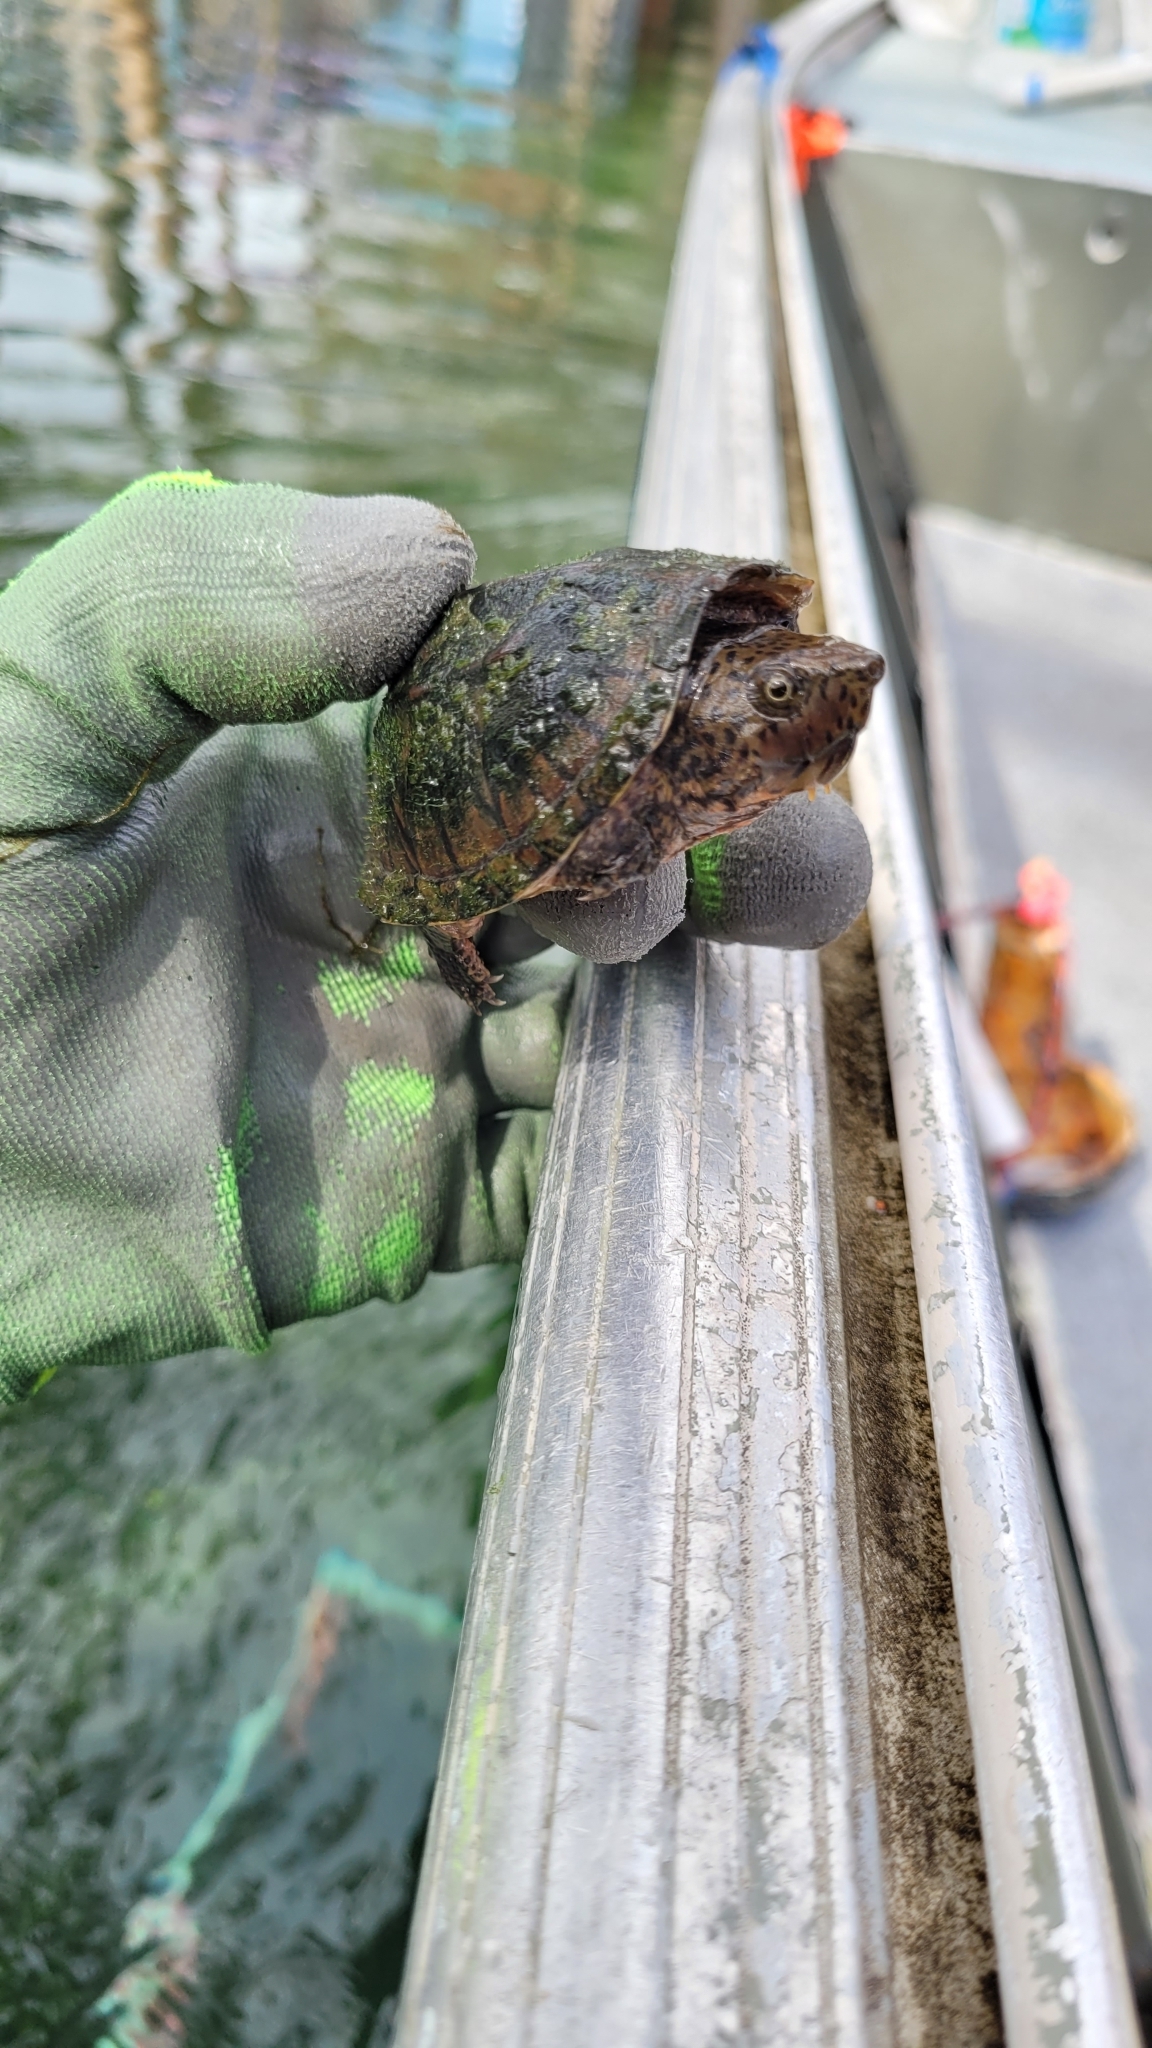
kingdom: Animalia
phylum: Chordata
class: Testudines
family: Kinosternidae
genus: Sternotherus
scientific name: Sternotherus minor
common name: Loggerhead musk turtle
